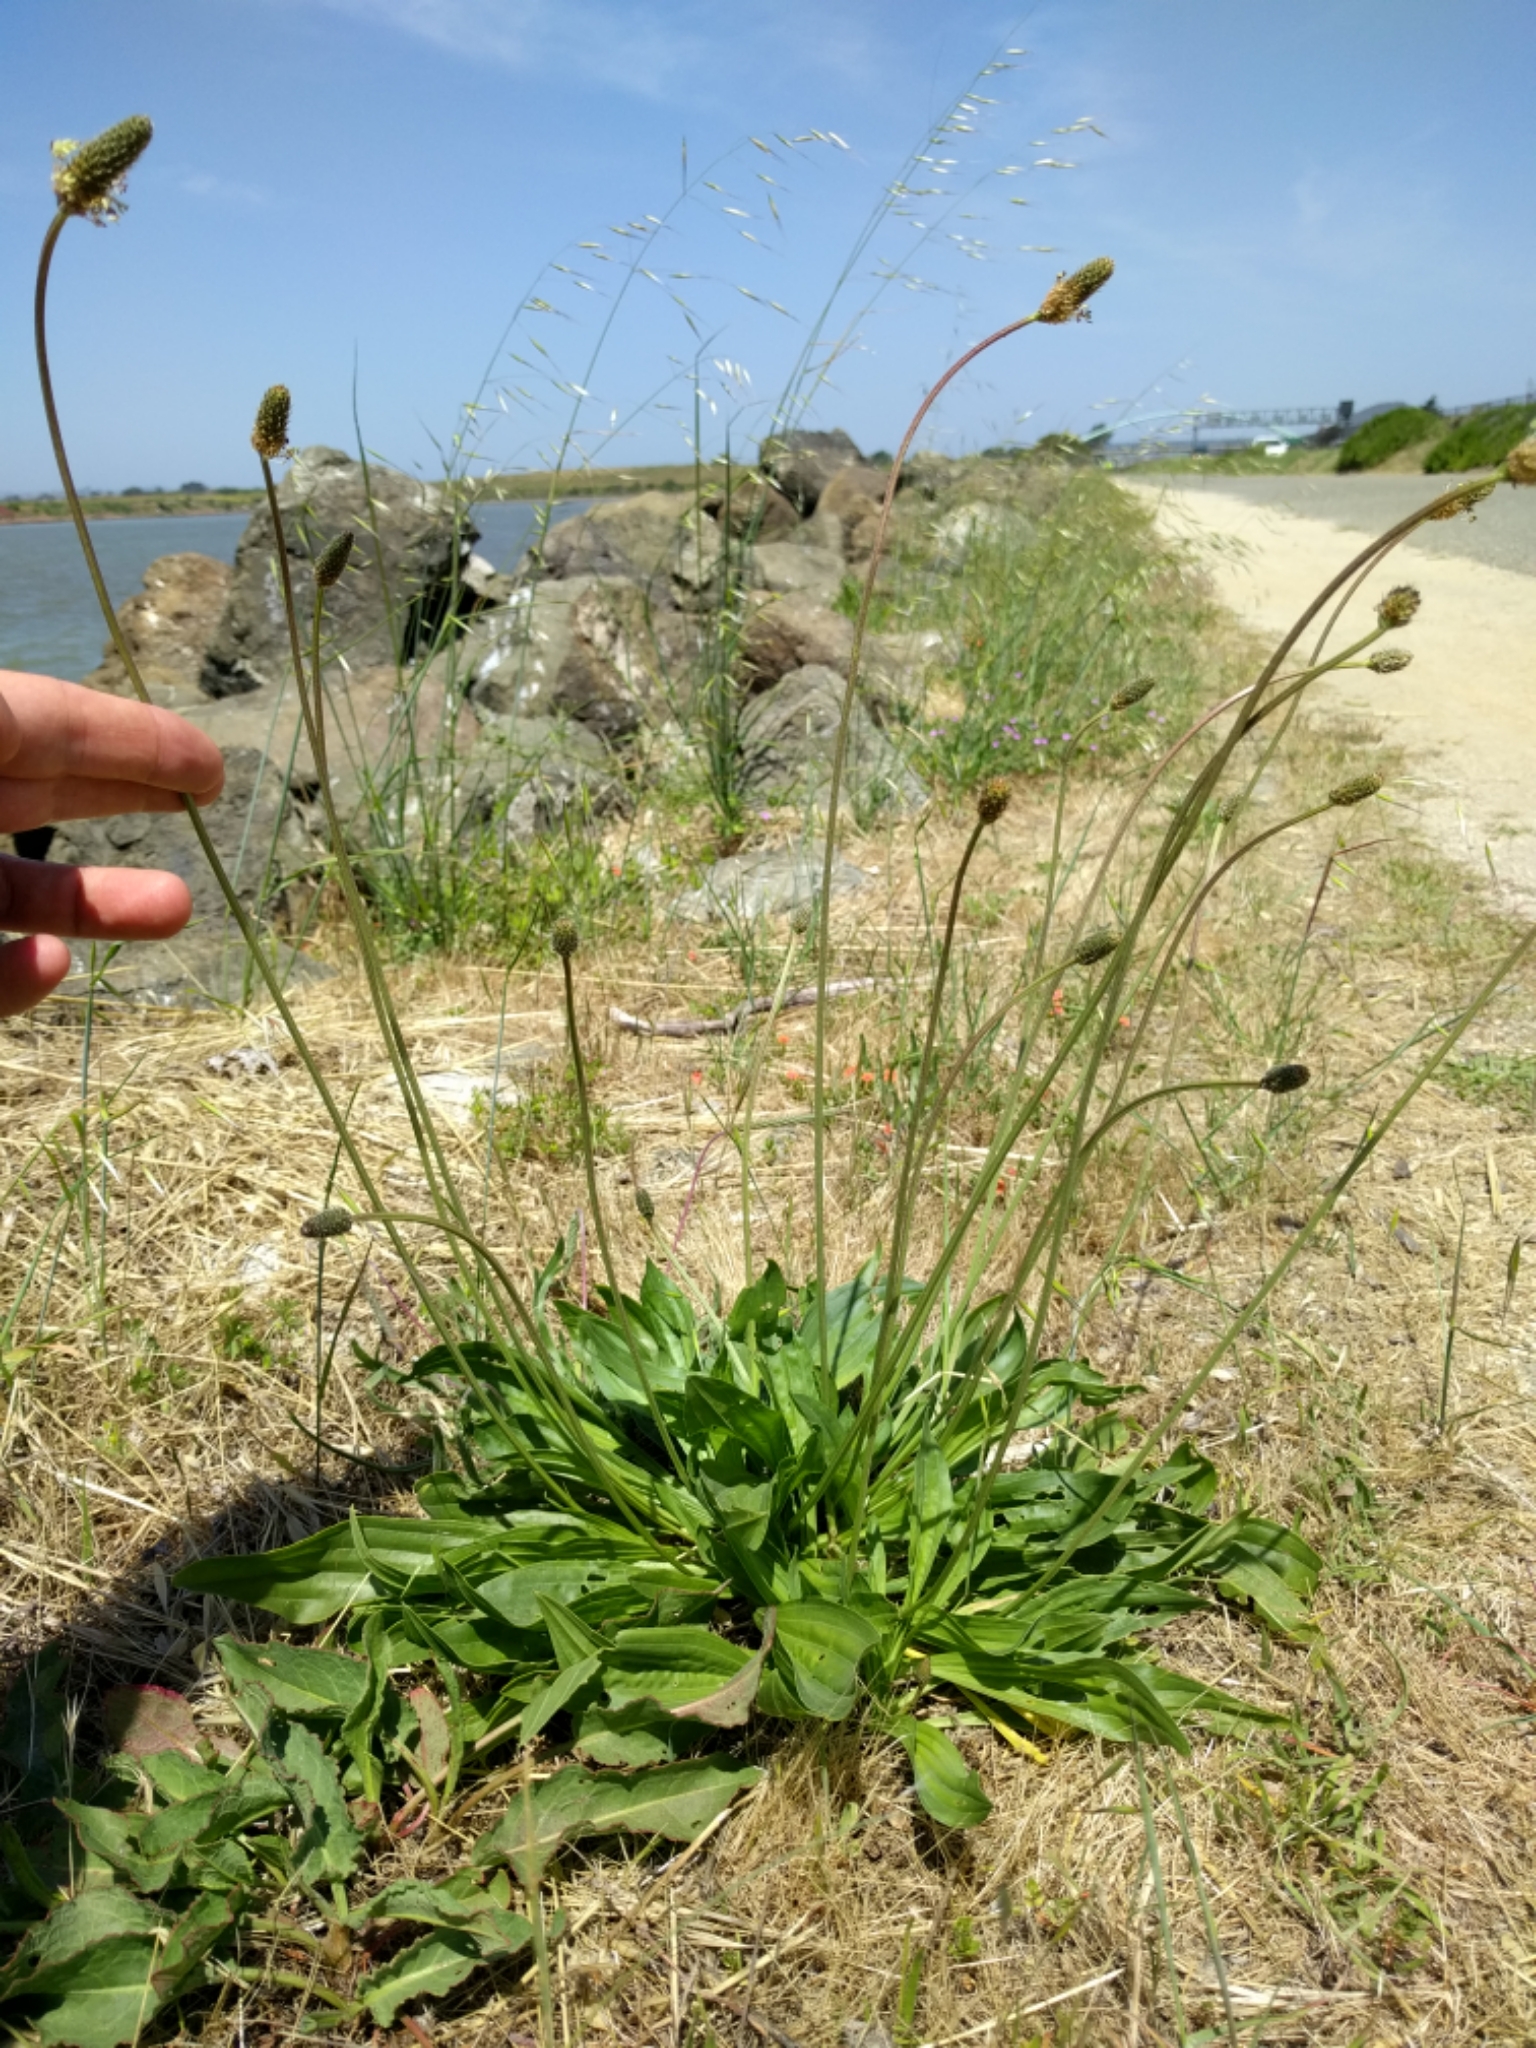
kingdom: Plantae
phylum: Tracheophyta
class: Magnoliopsida
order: Lamiales
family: Plantaginaceae
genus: Plantago
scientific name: Plantago lanceolata
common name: Ribwort plantain
